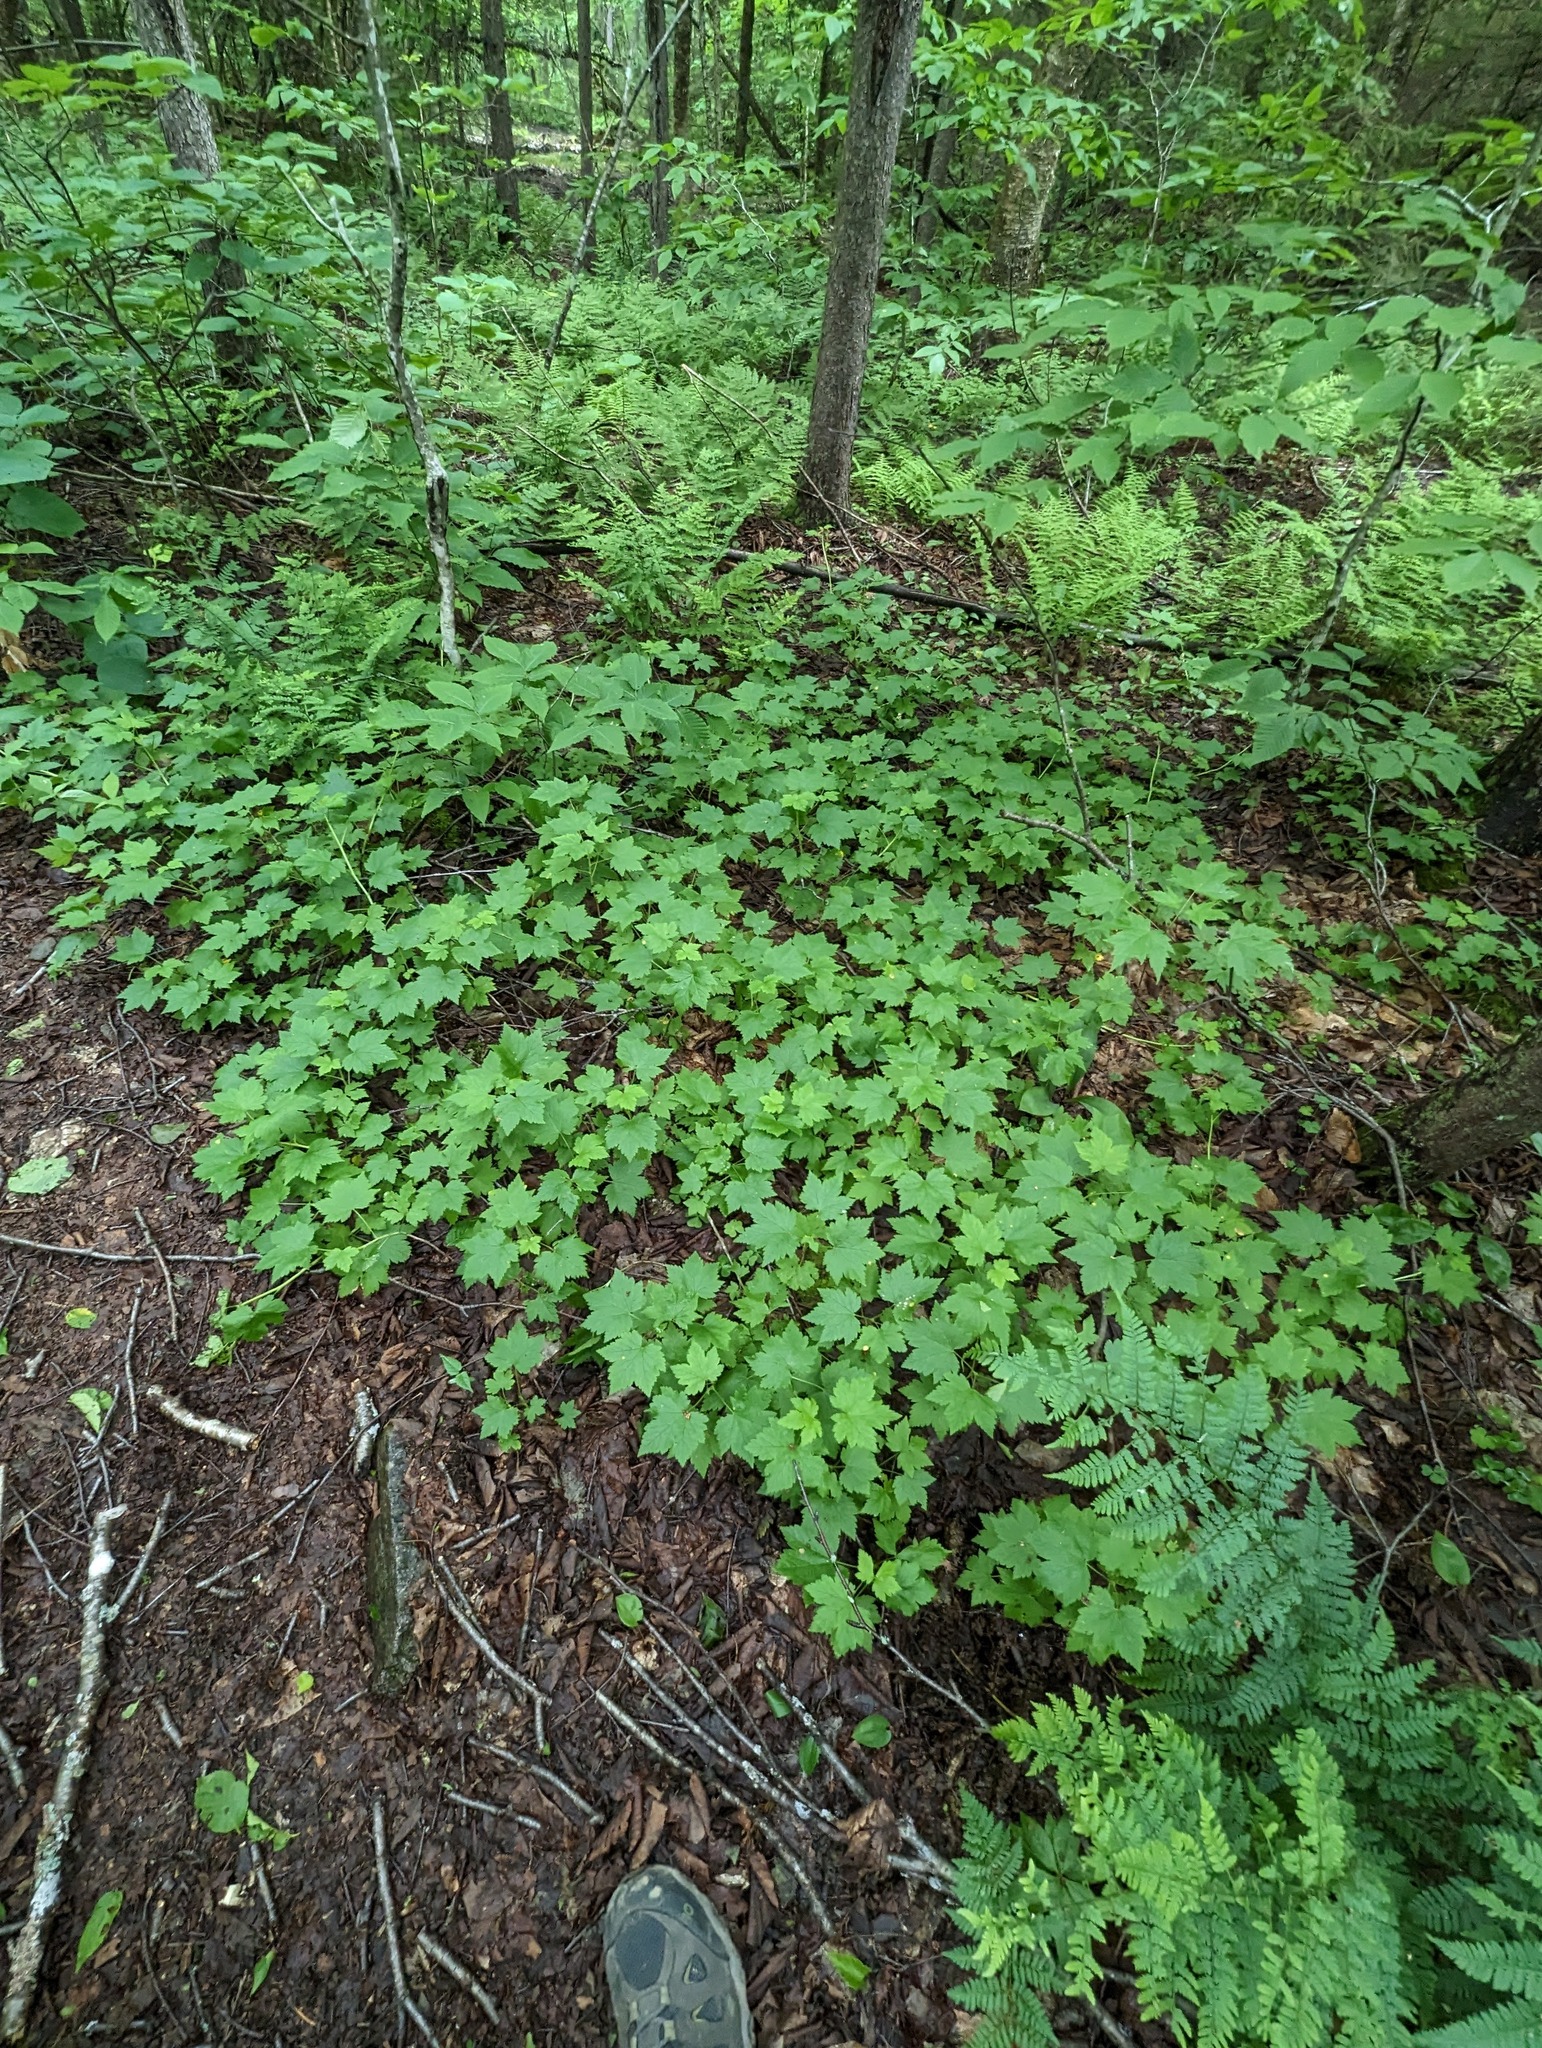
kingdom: Plantae
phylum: Tracheophyta
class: Magnoliopsida
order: Sapindales
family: Sapindaceae
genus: Acer
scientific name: Acer spicatum
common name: Mountain maple
